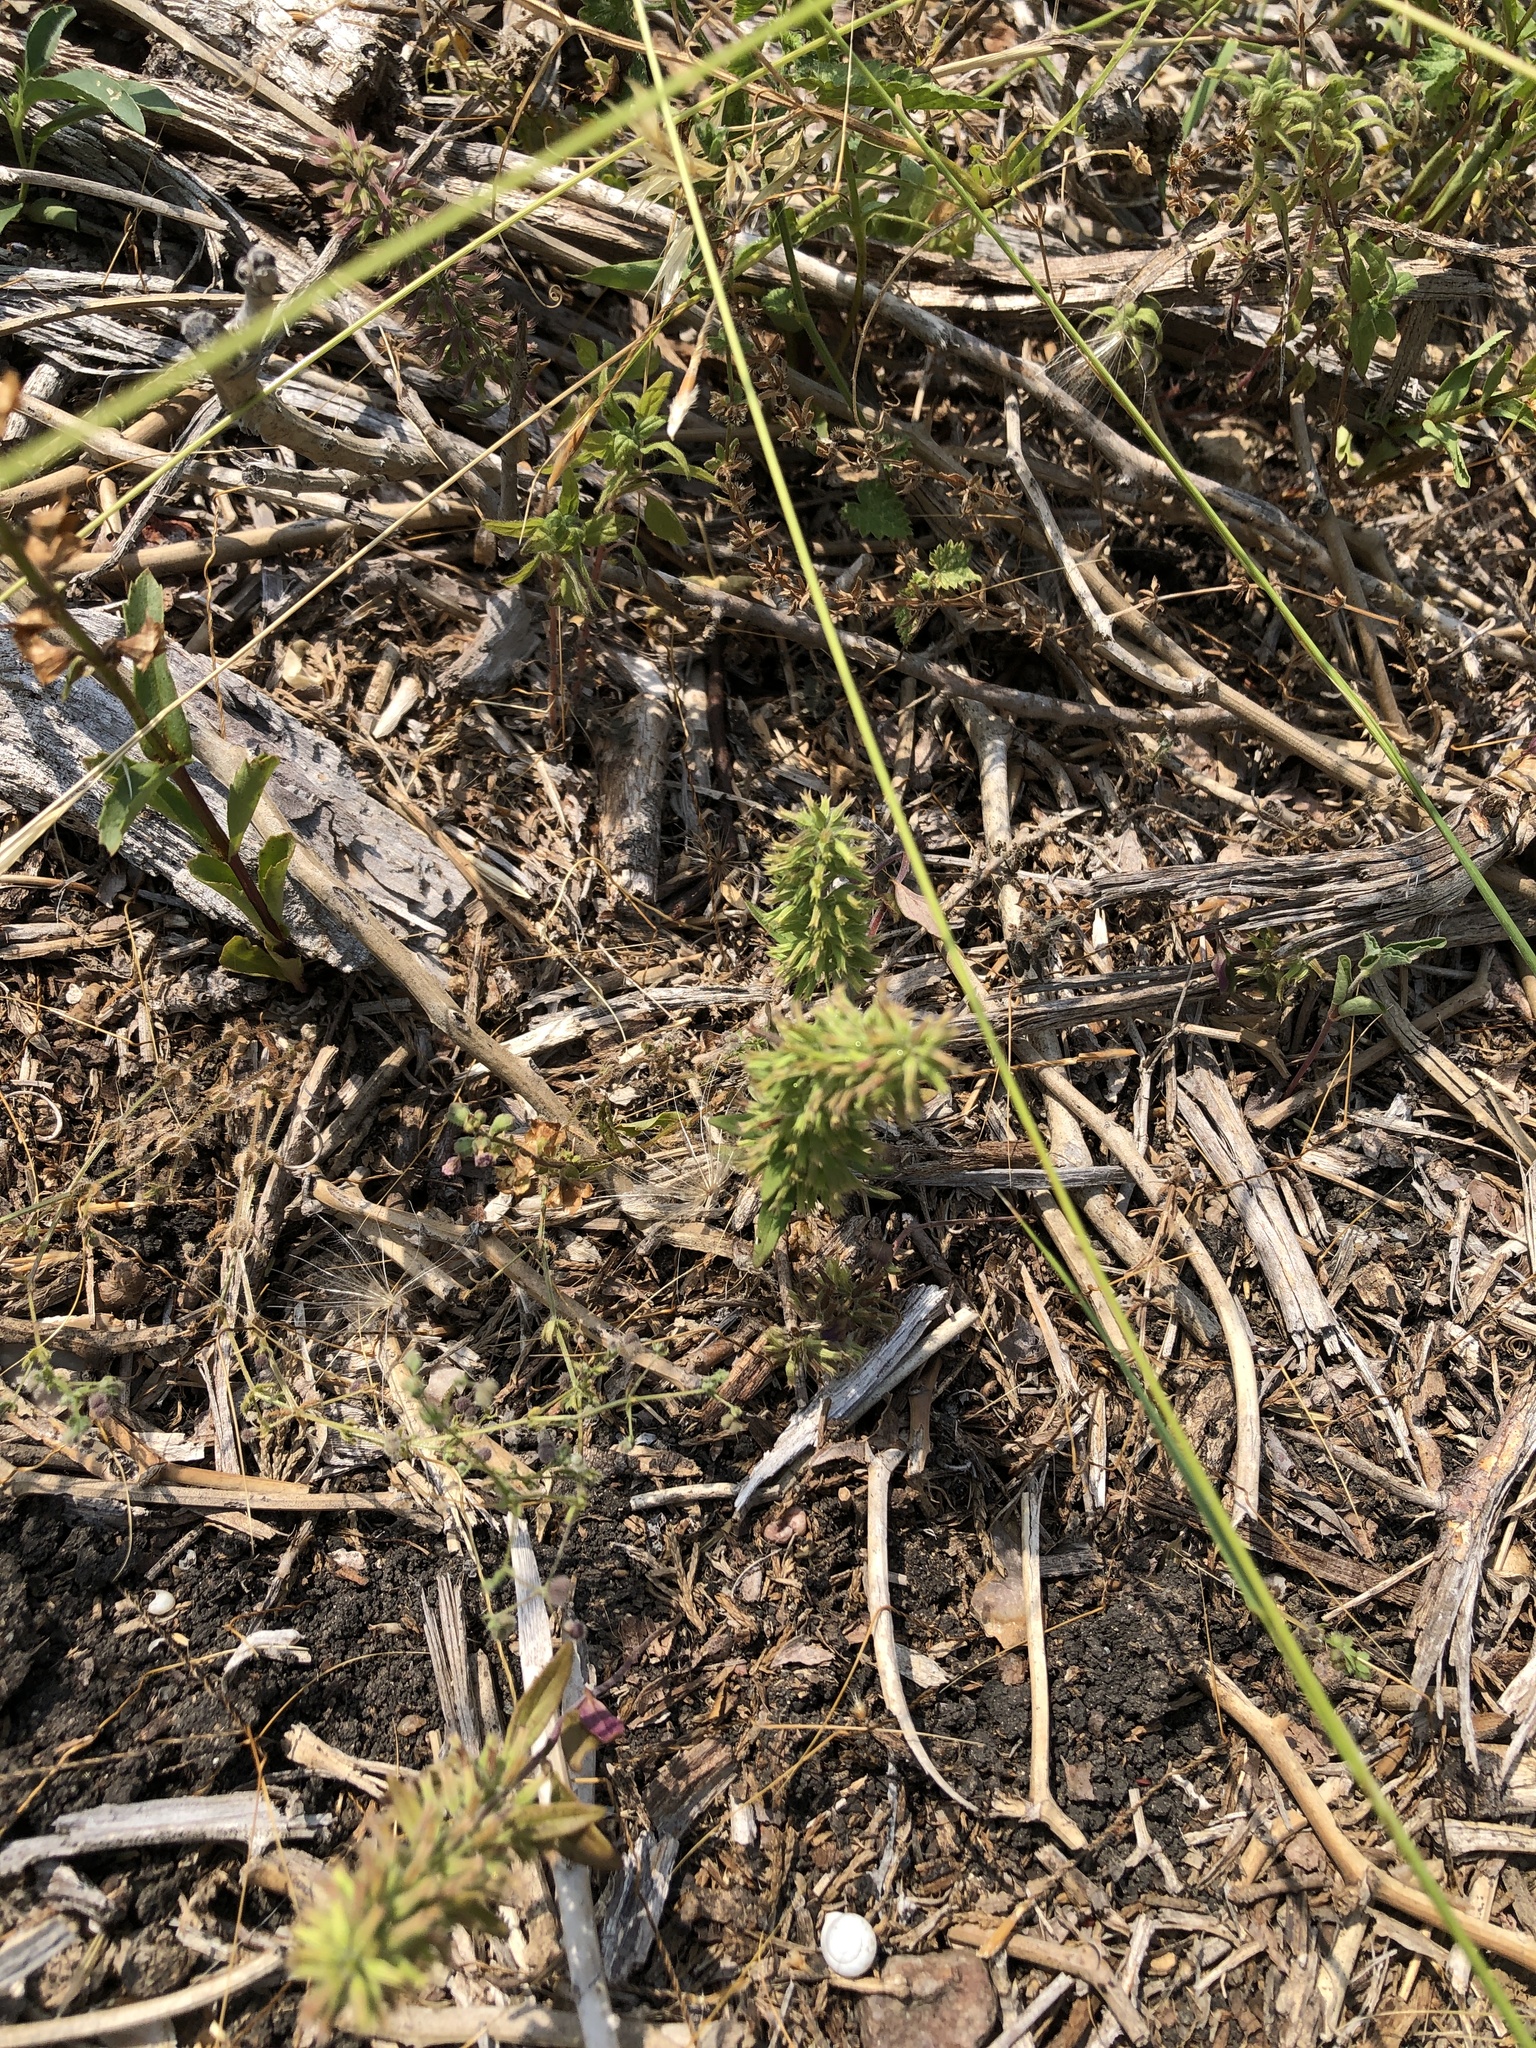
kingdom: Plantae
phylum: Tracheophyta
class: Magnoliopsida
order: Lamiales
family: Lamiaceae
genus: Hedeoma
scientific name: Hedeoma acinoides
